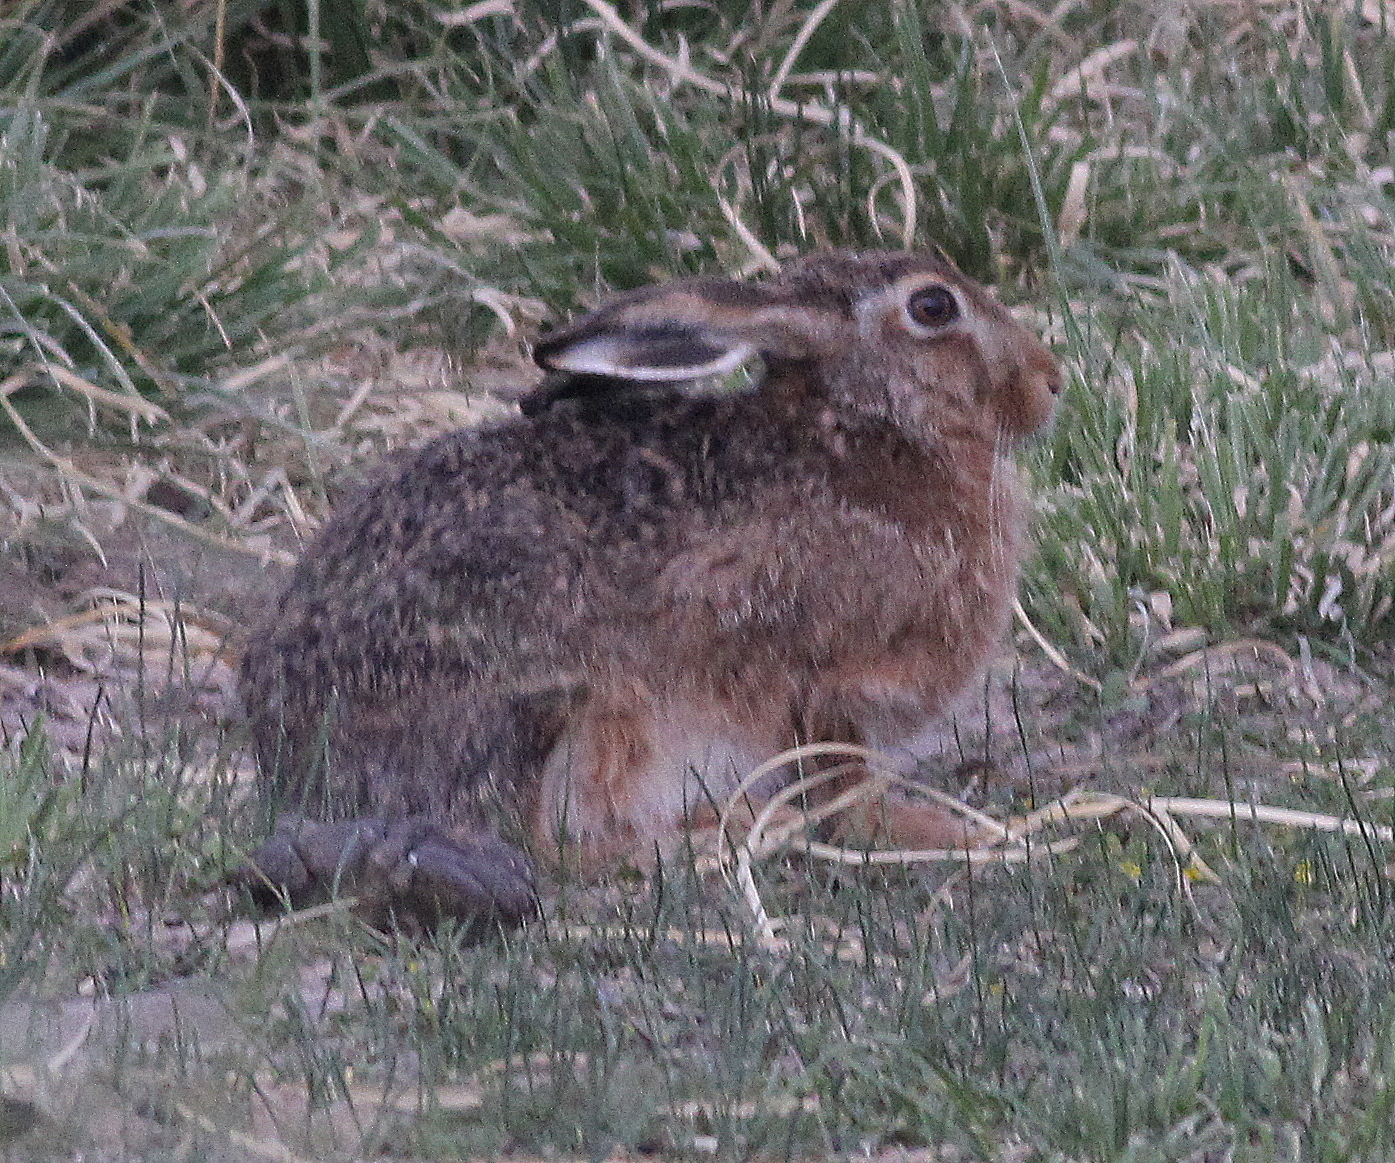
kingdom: Animalia
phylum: Chordata
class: Mammalia
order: Lagomorpha
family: Leporidae
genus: Lepus
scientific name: Lepus europaeus
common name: European hare
